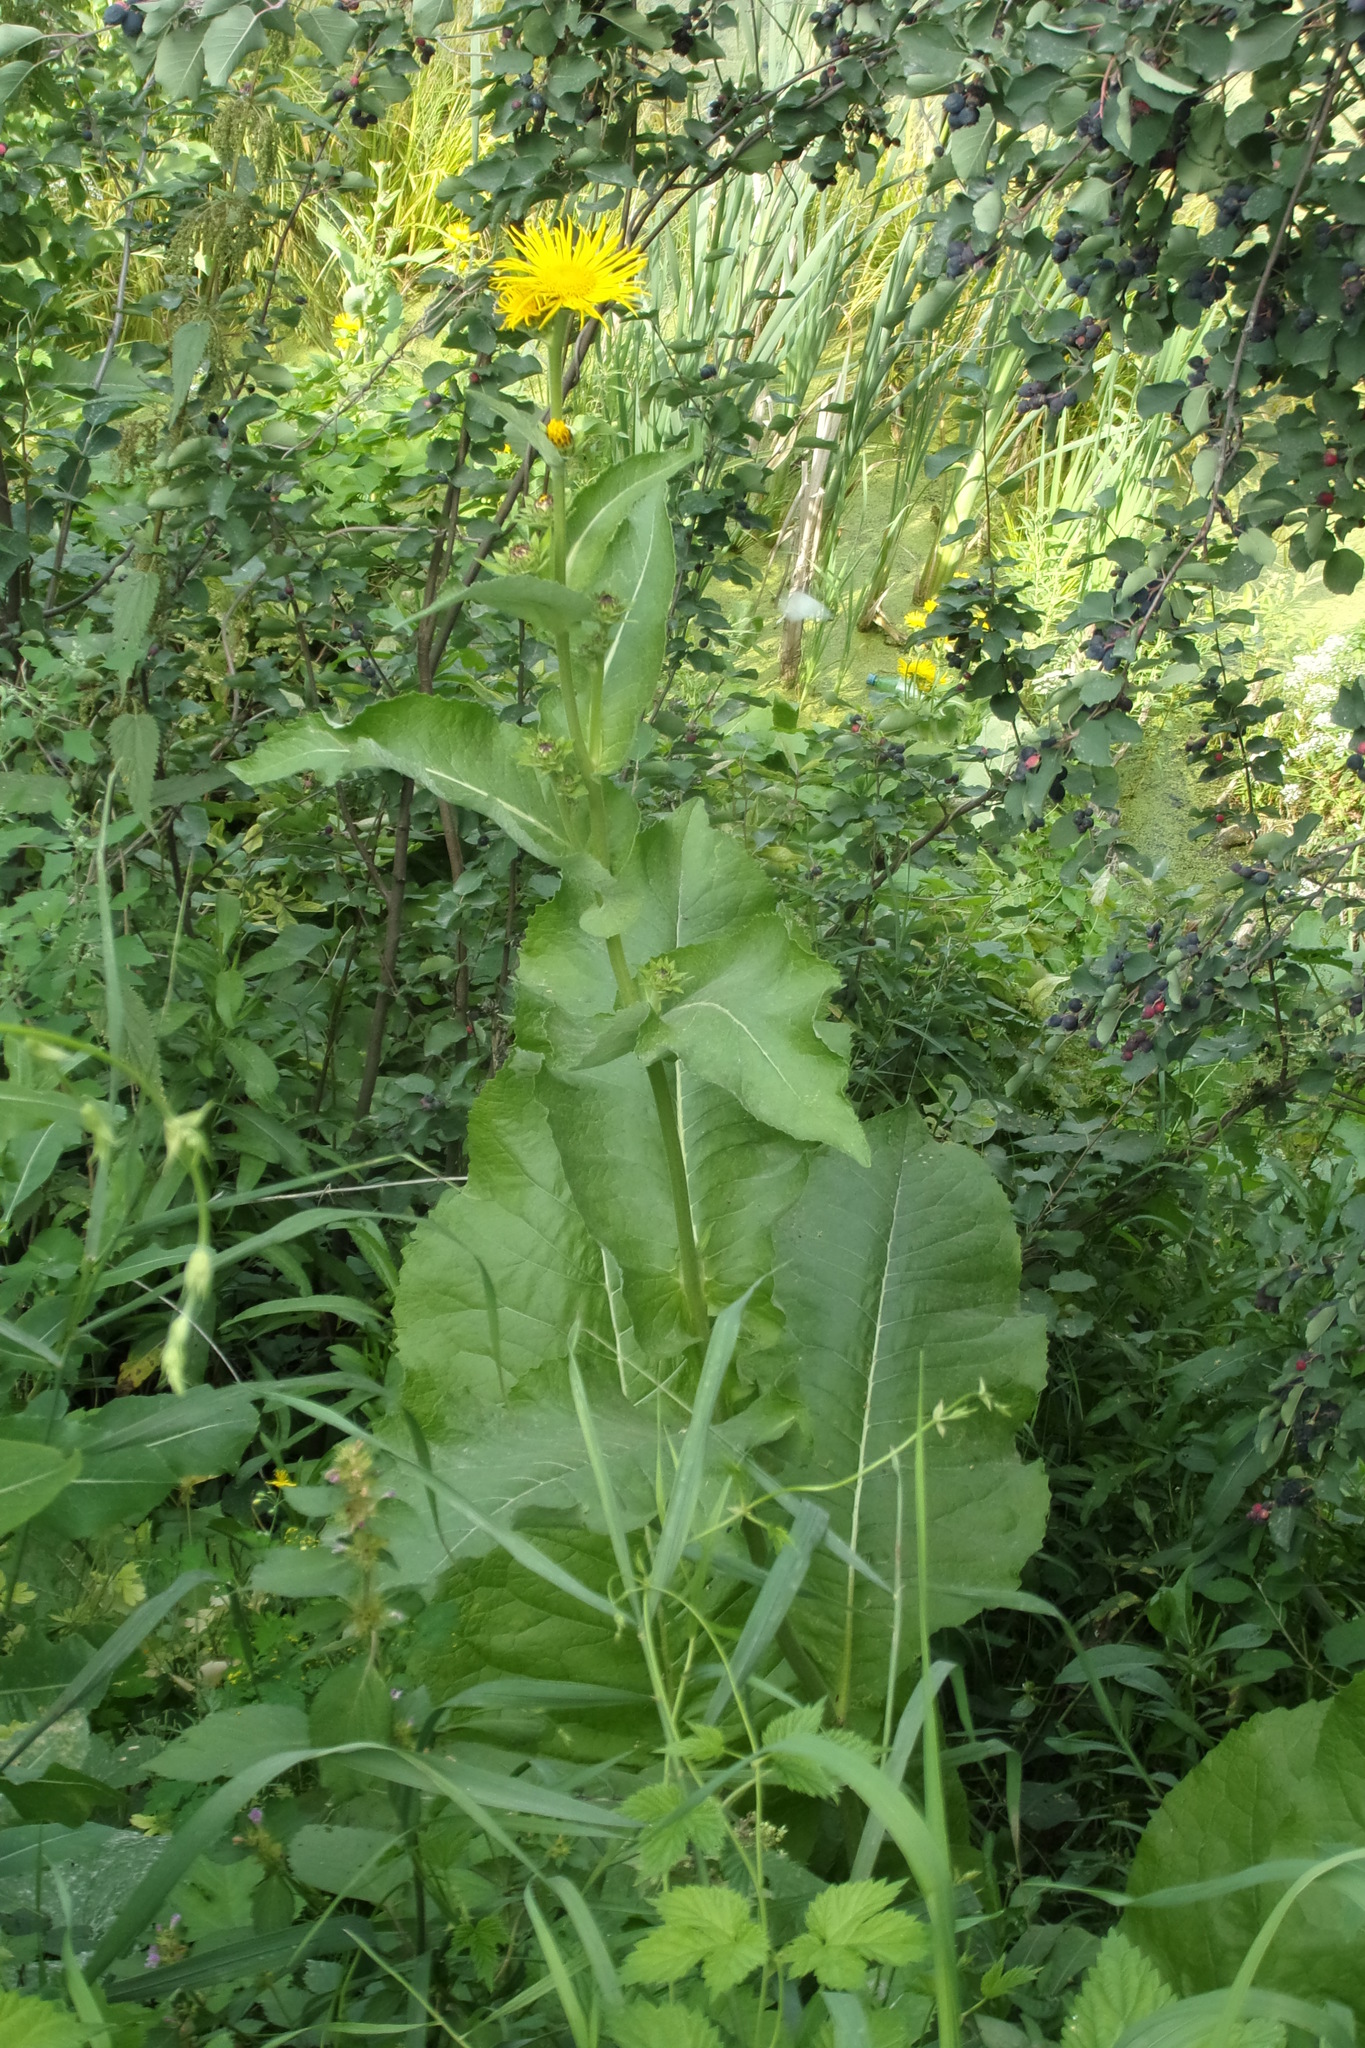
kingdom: Plantae
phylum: Tracheophyta
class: Magnoliopsida
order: Asterales
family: Asteraceae
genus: Inula
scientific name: Inula helenium
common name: Elecampane
